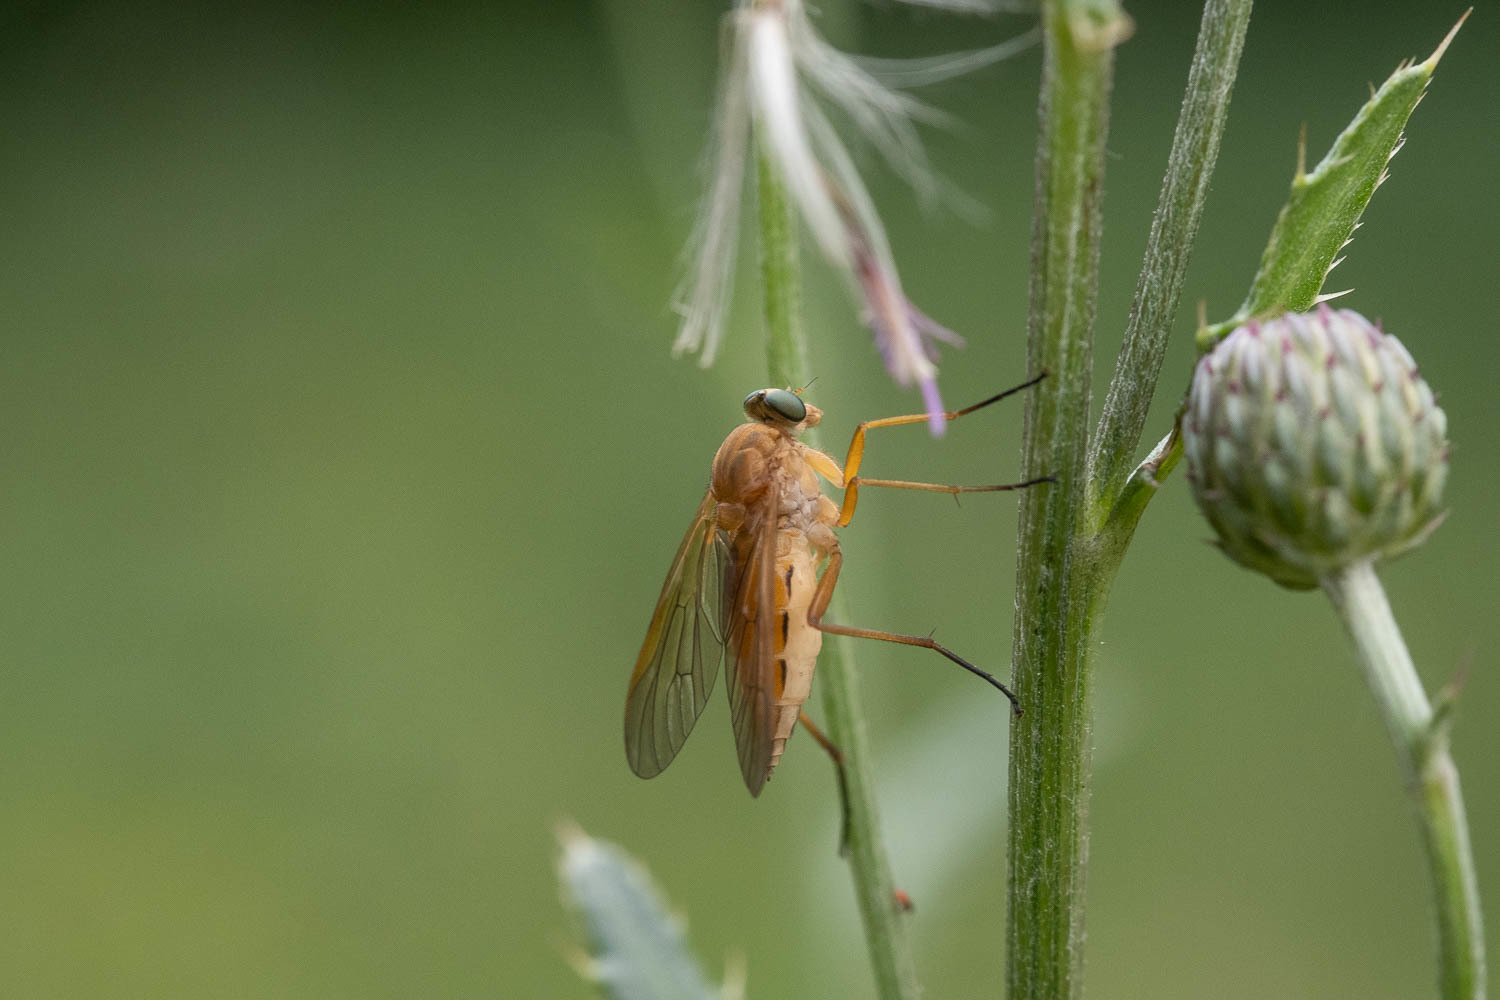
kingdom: Animalia
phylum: Arthropoda
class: Insecta
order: Diptera
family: Rhagionidae
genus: Rhagio
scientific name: Rhagio tringaria
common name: Marsh snipefly
